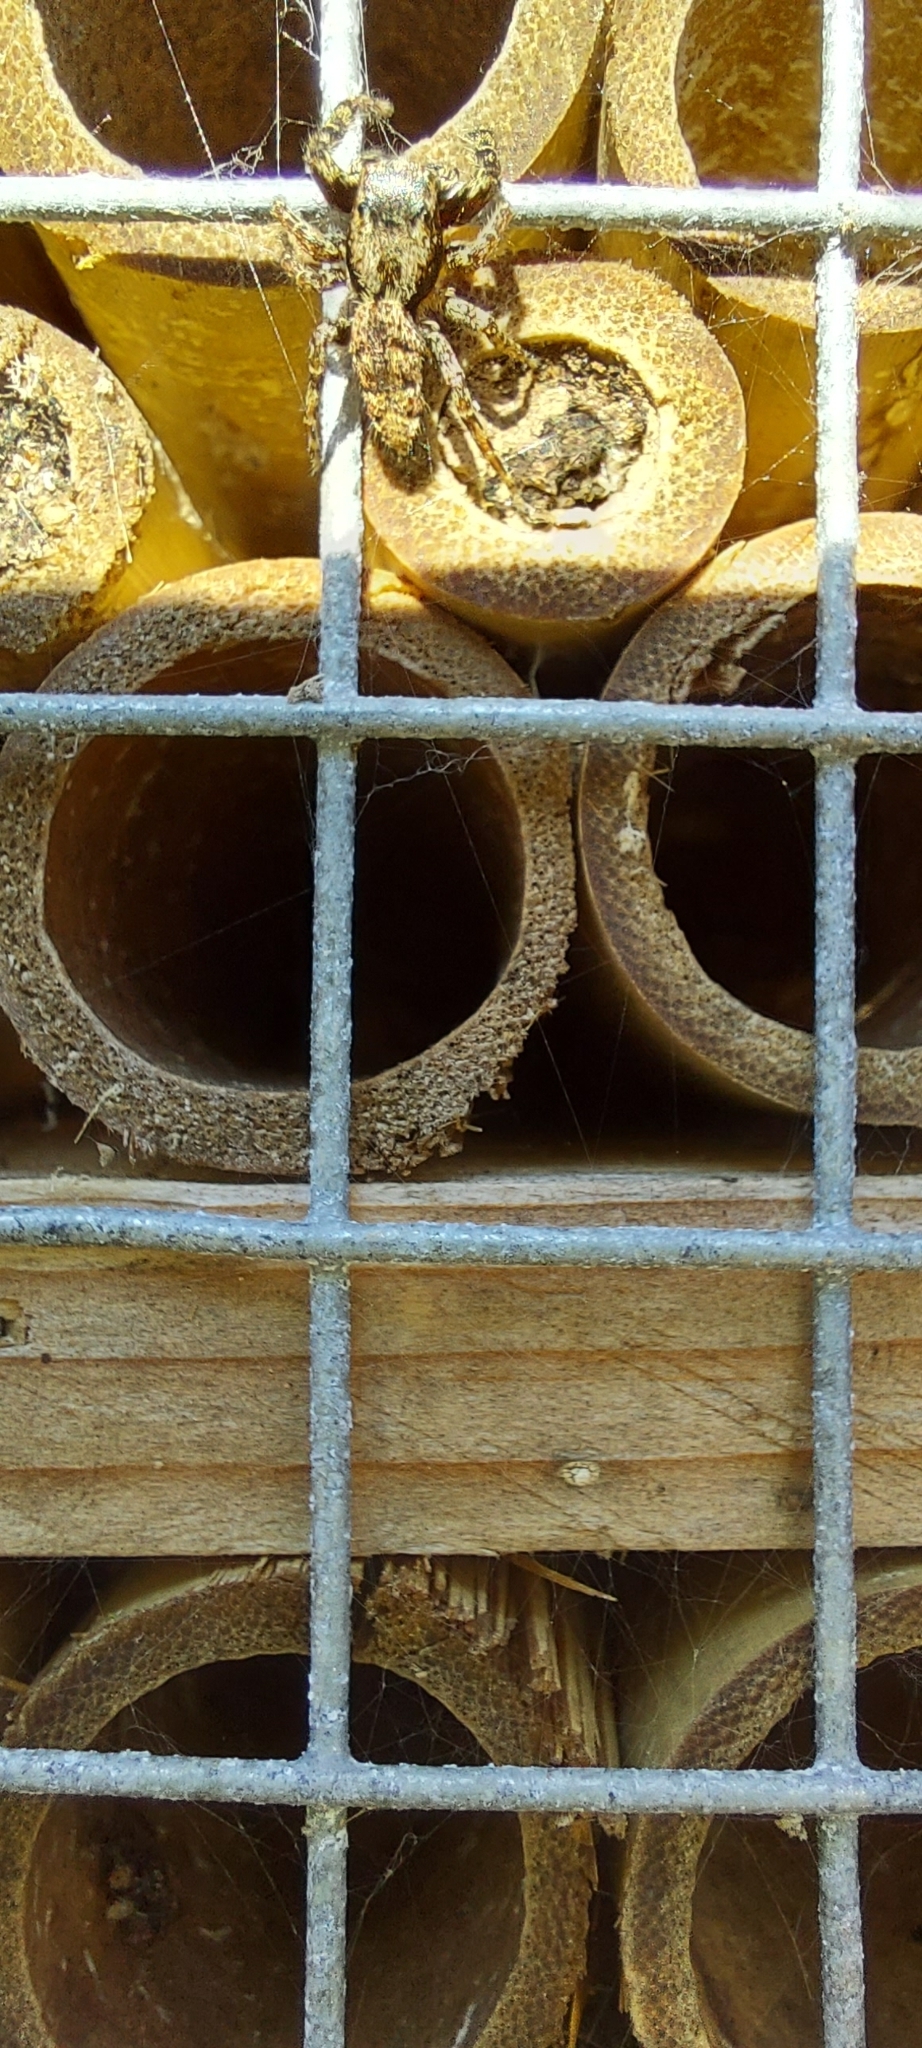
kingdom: Animalia
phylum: Arthropoda
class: Arachnida
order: Araneae
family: Salticidae
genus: Marpissa
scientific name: Marpissa muscosa
